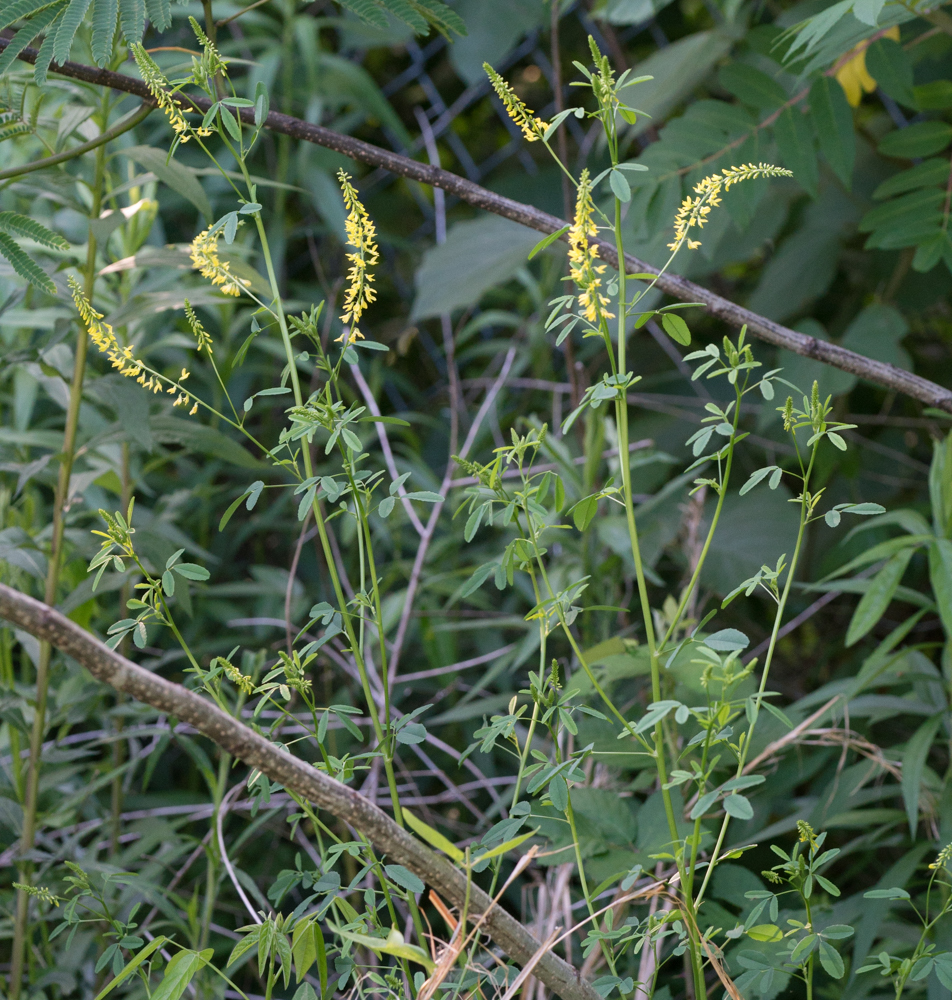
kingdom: Plantae
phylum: Tracheophyta
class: Magnoliopsida
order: Fabales
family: Fabaceae
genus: Melilotus
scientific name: Melilotus officinalis
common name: Sweetclover
